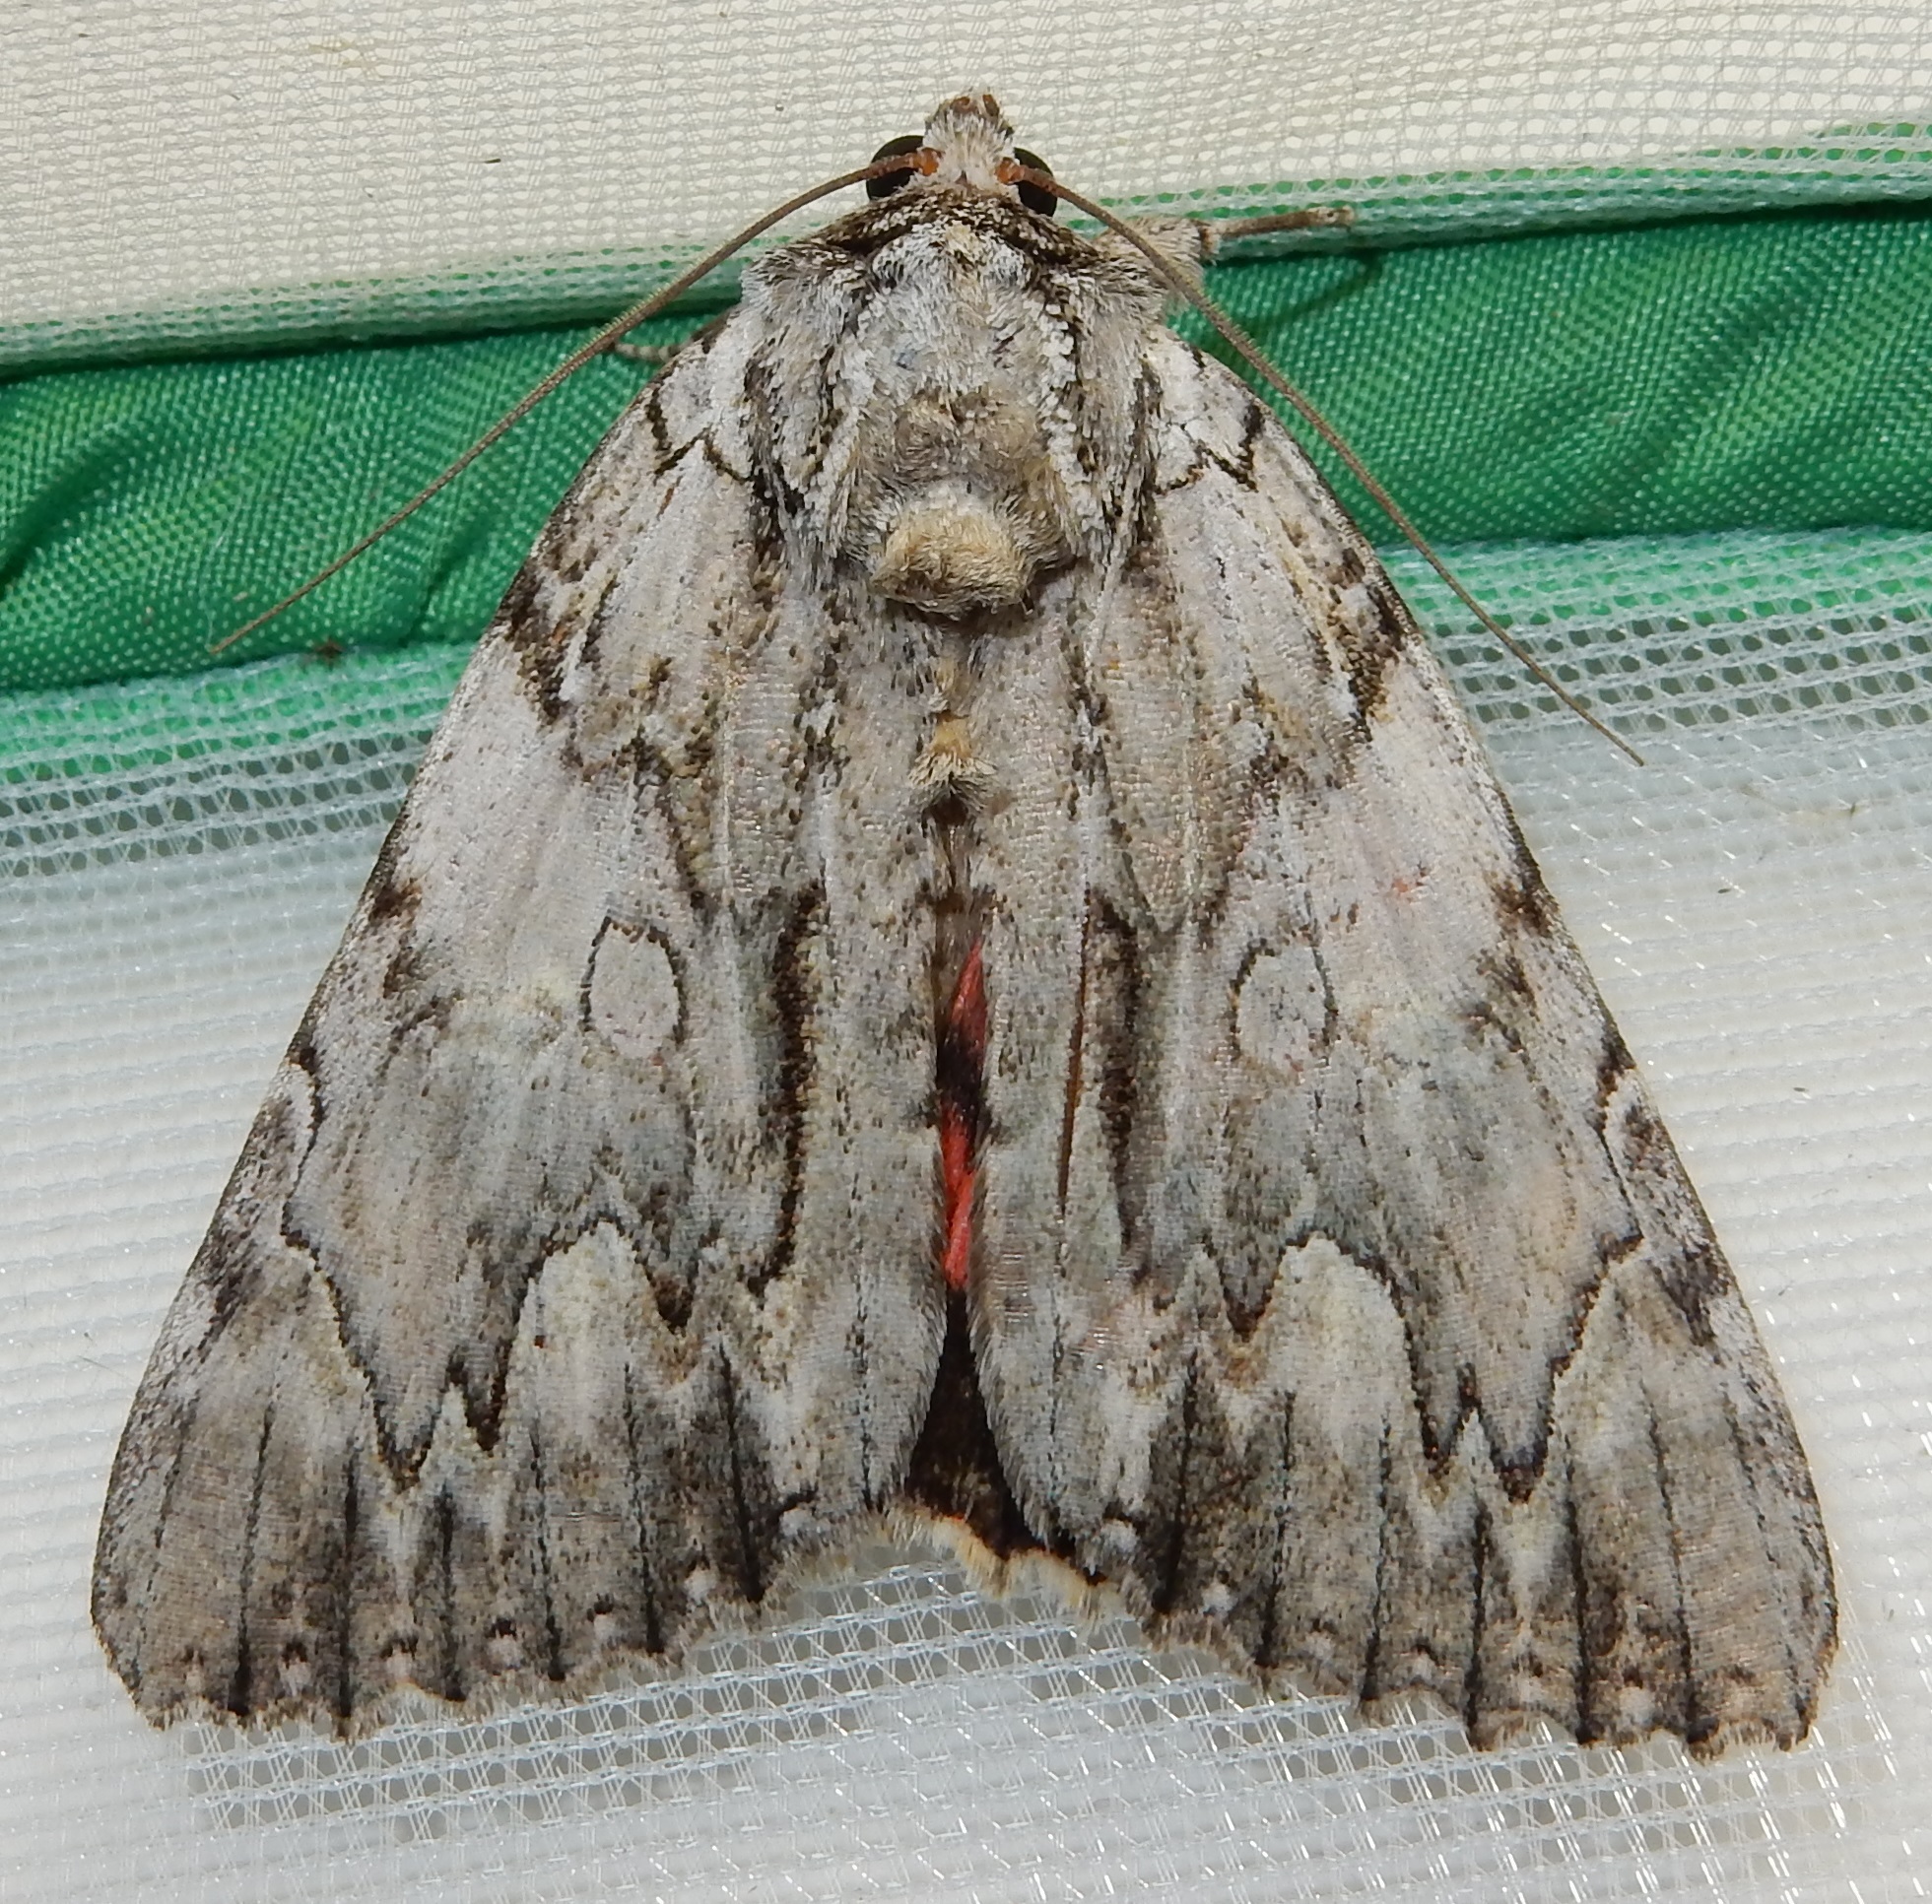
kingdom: Animalia
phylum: Arthropoda
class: Insecta
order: Lepidoptera
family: Erebidae
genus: Catocala
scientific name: Catocala coccinata
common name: Scarlet underwing
